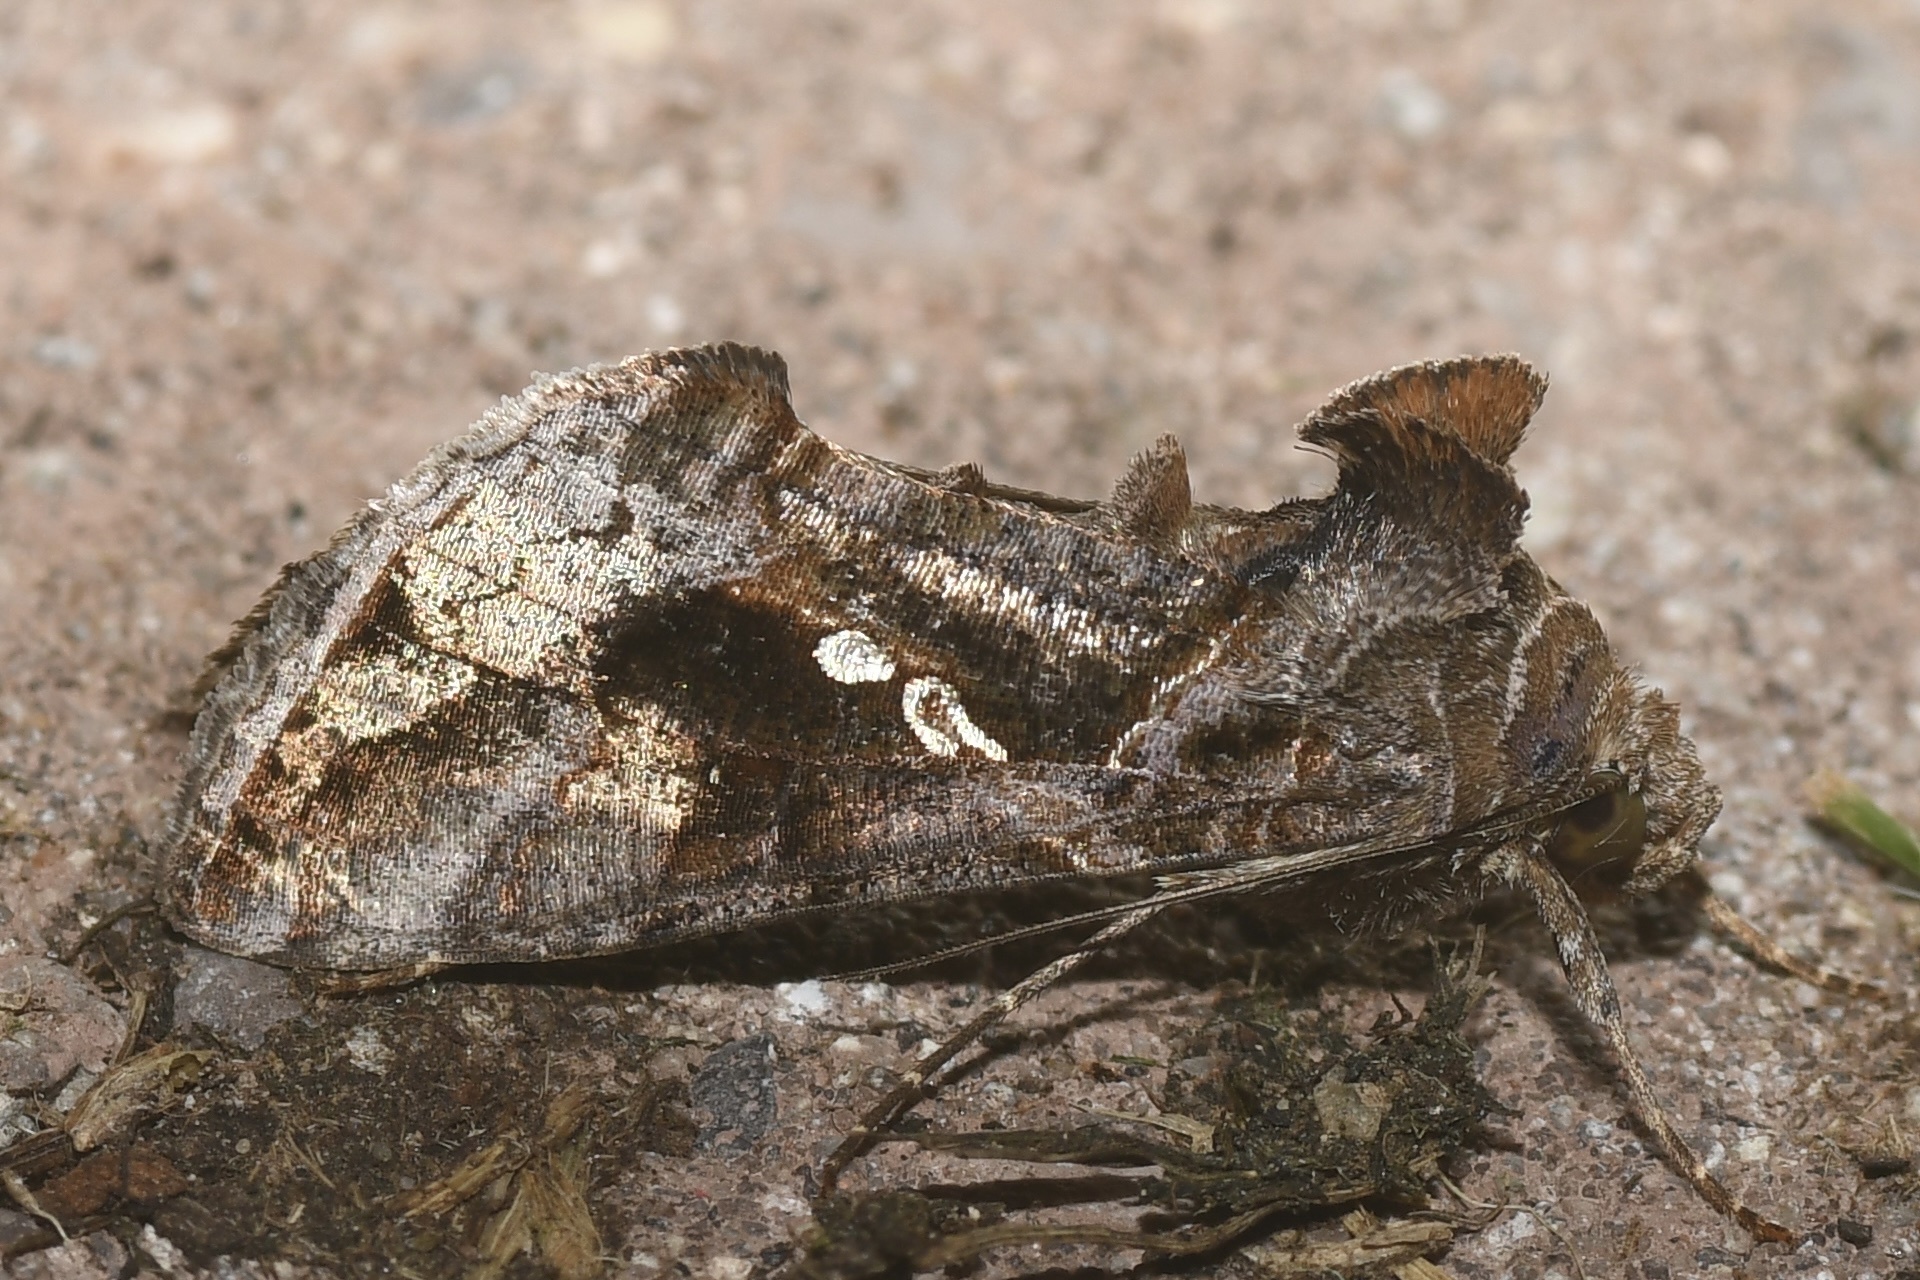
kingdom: Animalia
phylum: Arthropoda
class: Insecta
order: Lepidoptera
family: Noctuidae
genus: Chrysodeixis
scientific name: Chrysodeixis includens
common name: Cutworm moth
